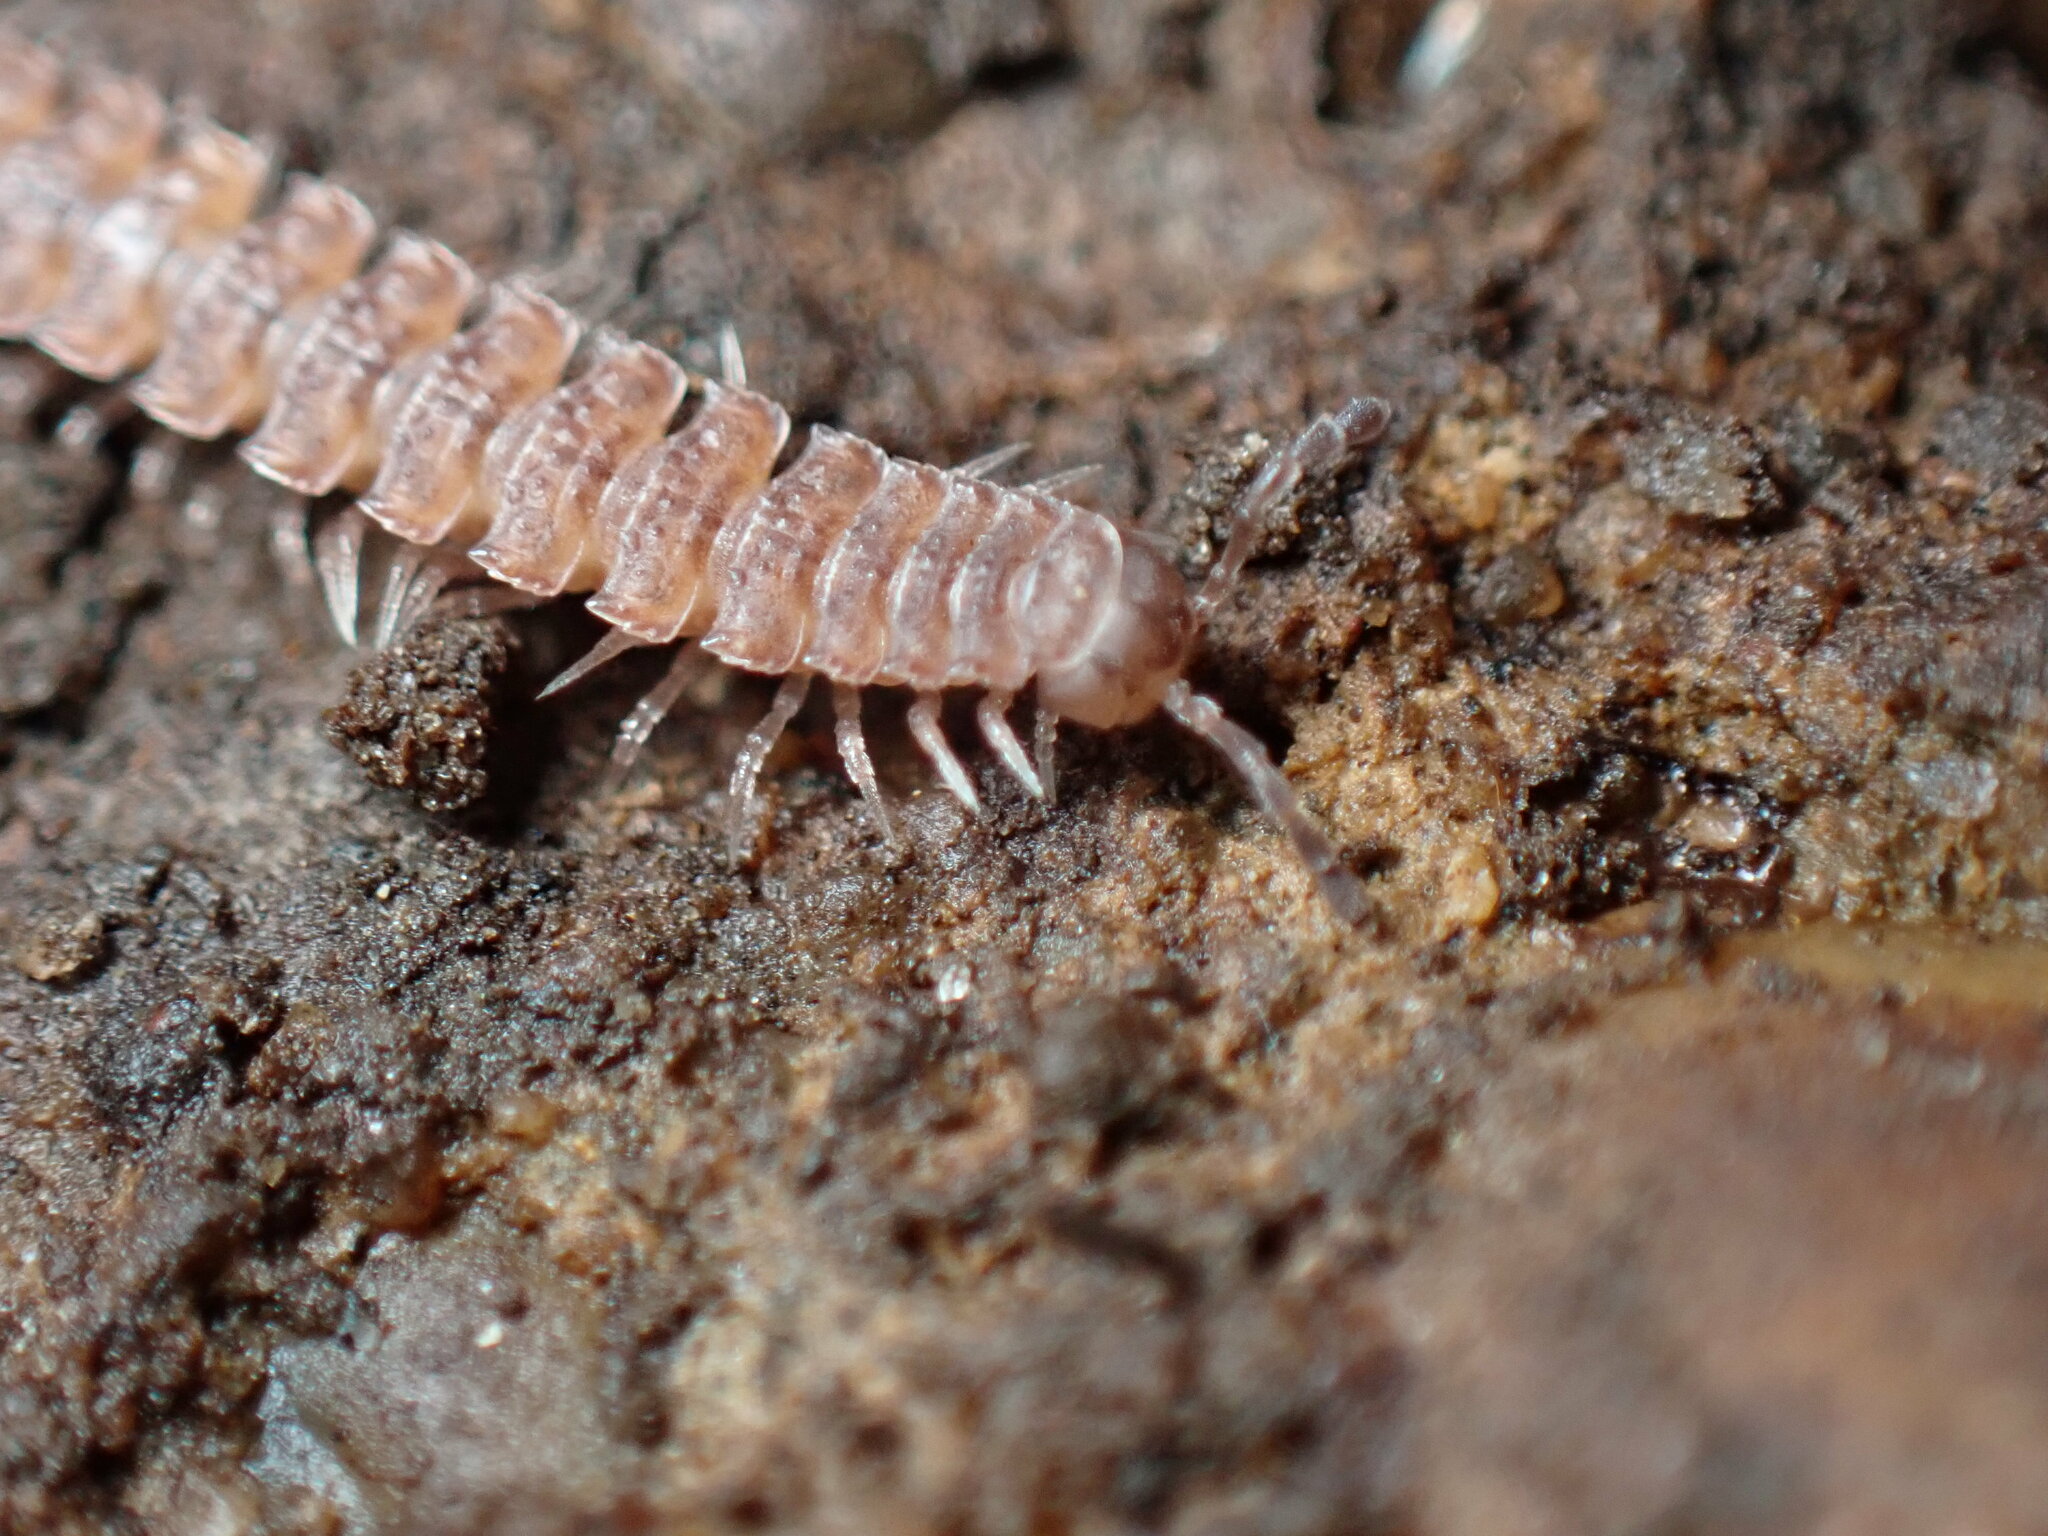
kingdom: Animalia
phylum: Arthropoda
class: Diplopoda
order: Polydesmida
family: Polydesmidae
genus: Polydesmus
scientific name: Polydesmus angustus
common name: Flat millipede
